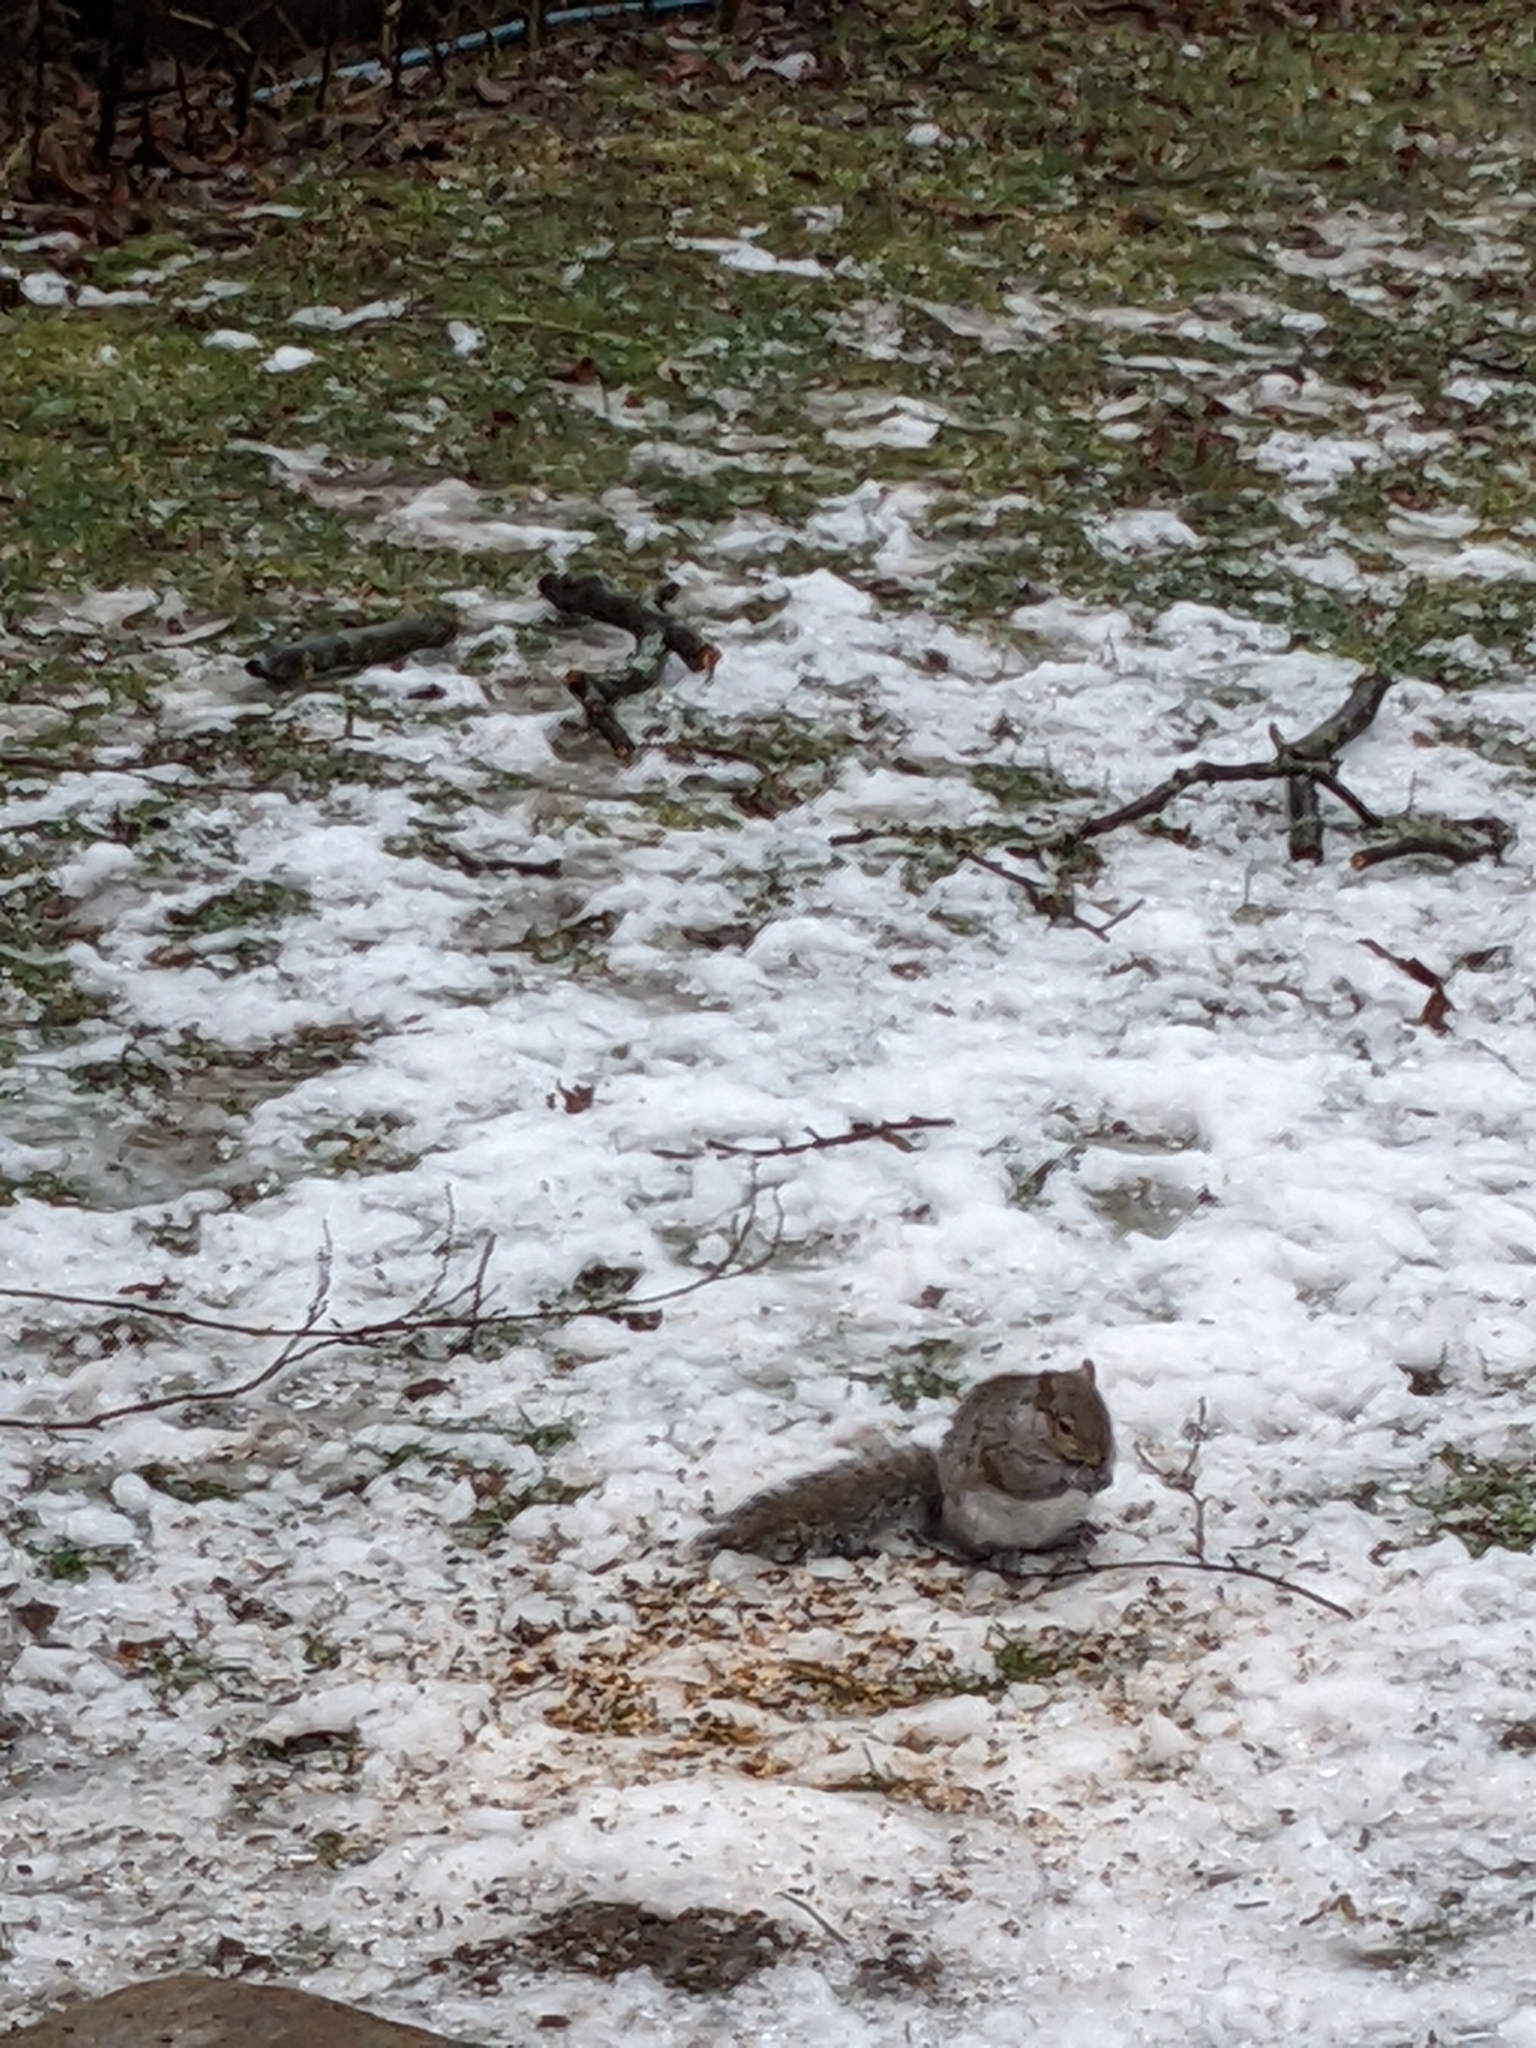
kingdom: Animalia
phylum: Chordata
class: Mammalia
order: Rodentia
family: Sciuridae
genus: Sciurus
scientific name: Sciurus carolinensis
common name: Eastern gray squirrel
